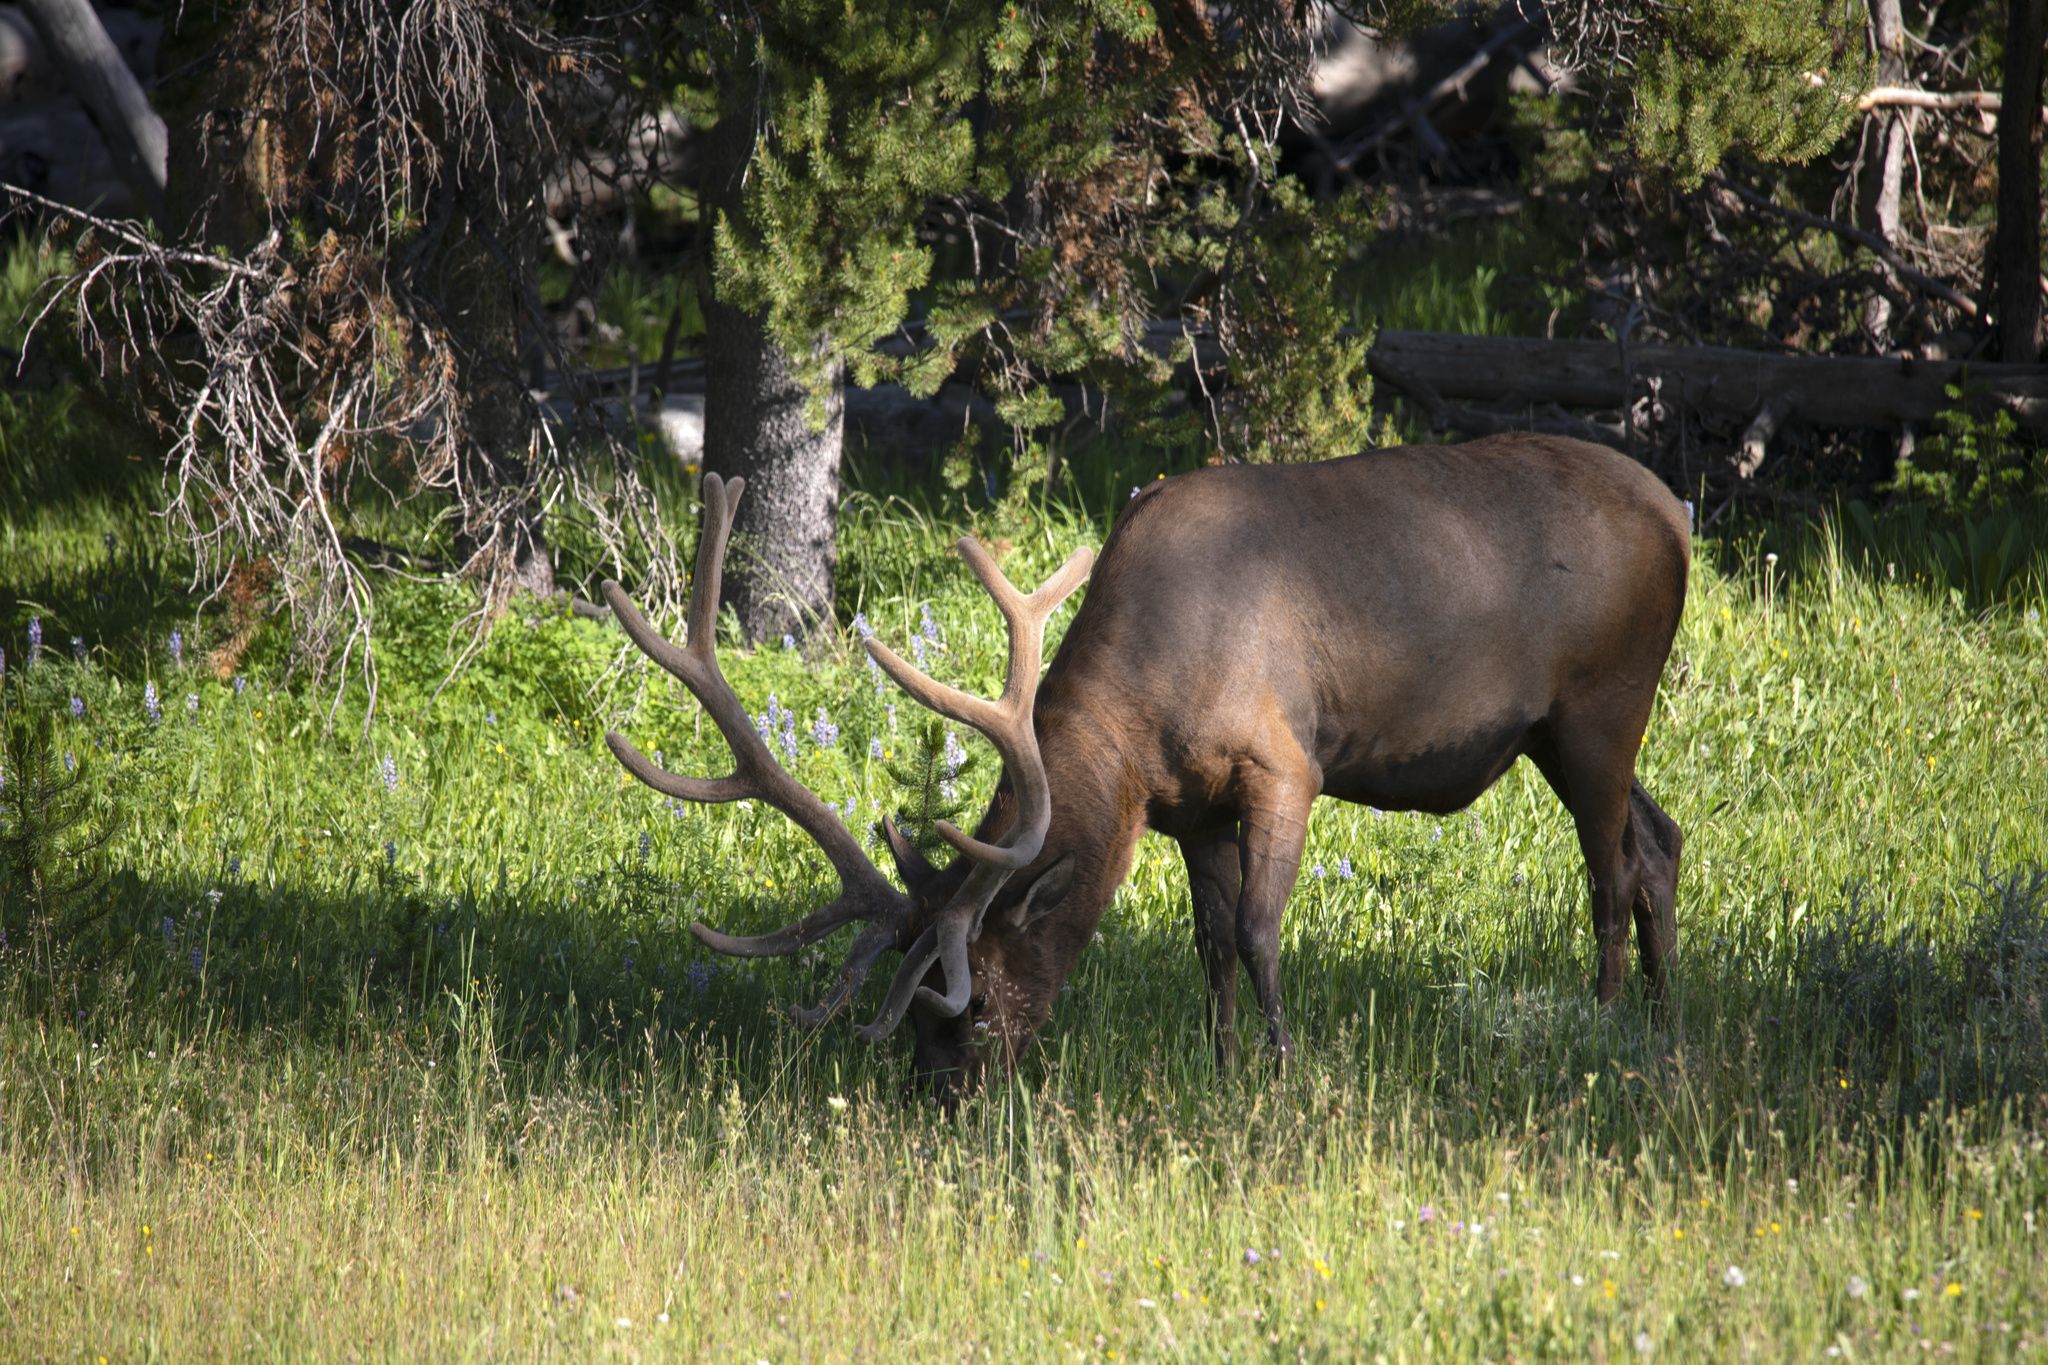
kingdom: Animalia
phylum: Chordata
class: Mammalia
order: Artiodactyla
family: Cervidae
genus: Cervus
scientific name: Cervus elaphus
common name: Red deer
